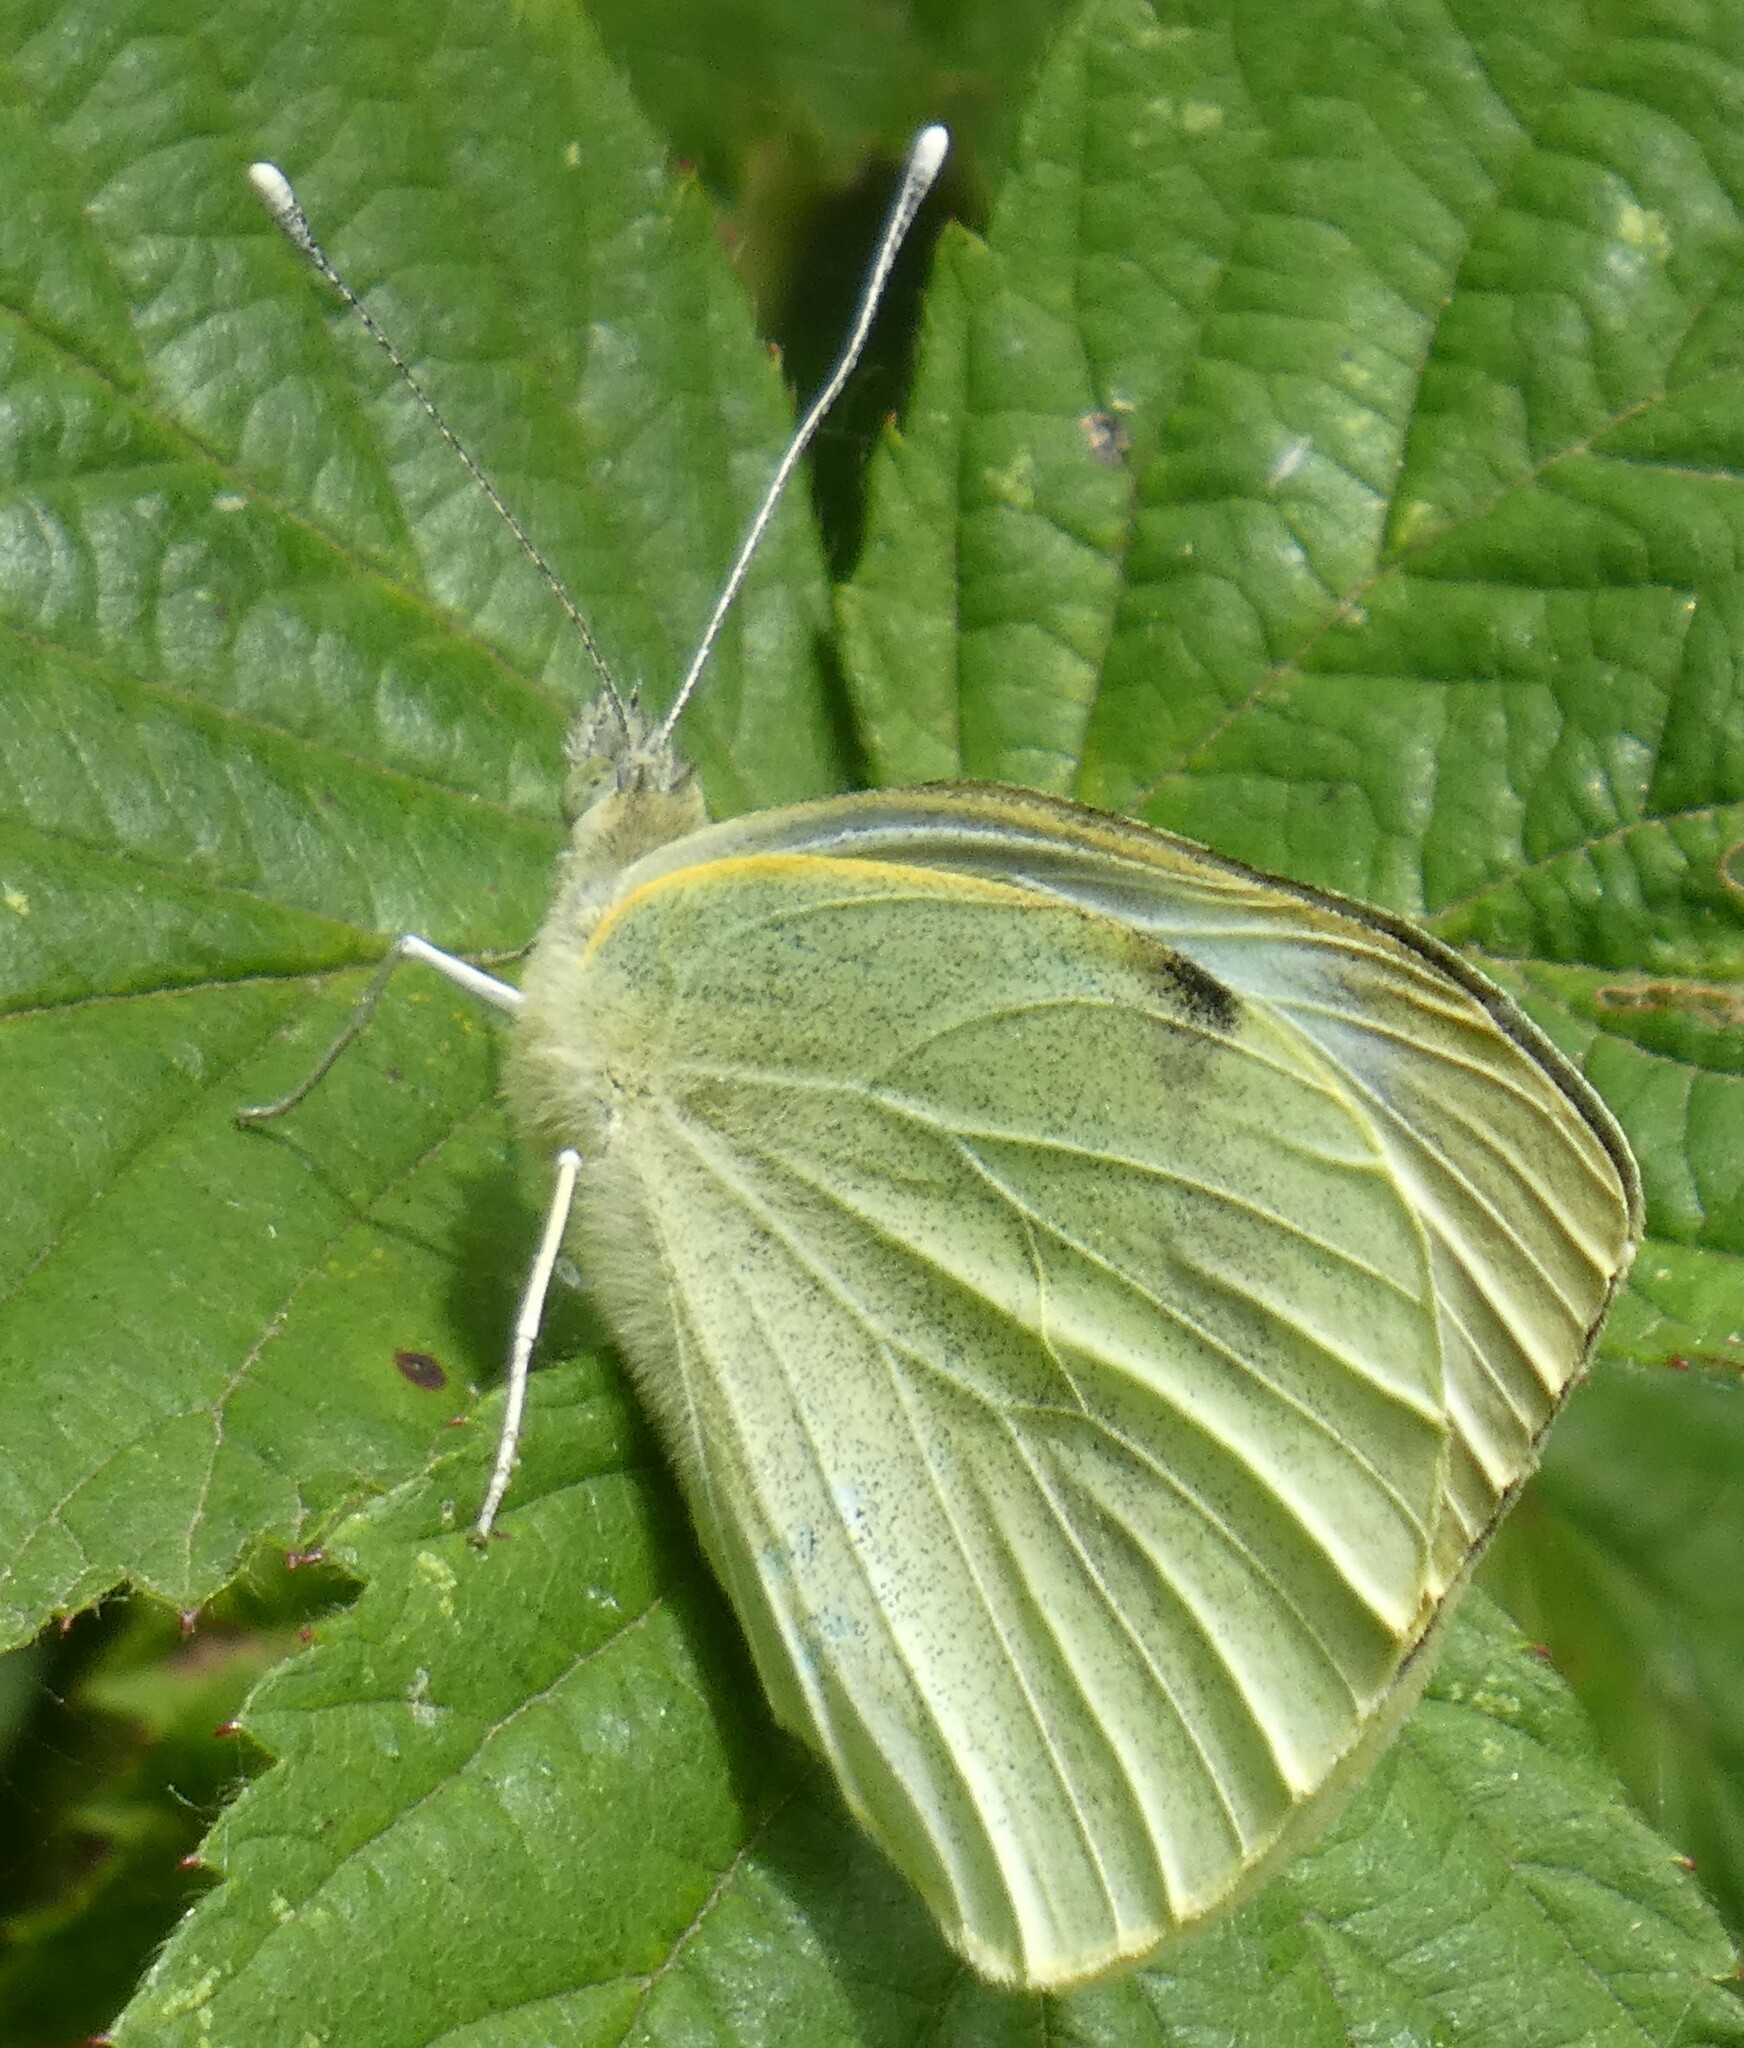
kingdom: Animalia
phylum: Arthropoda
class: Insecta
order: Lepidoptera
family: Pieridae
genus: Pieris
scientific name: Pieris brassicae
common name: Large white
